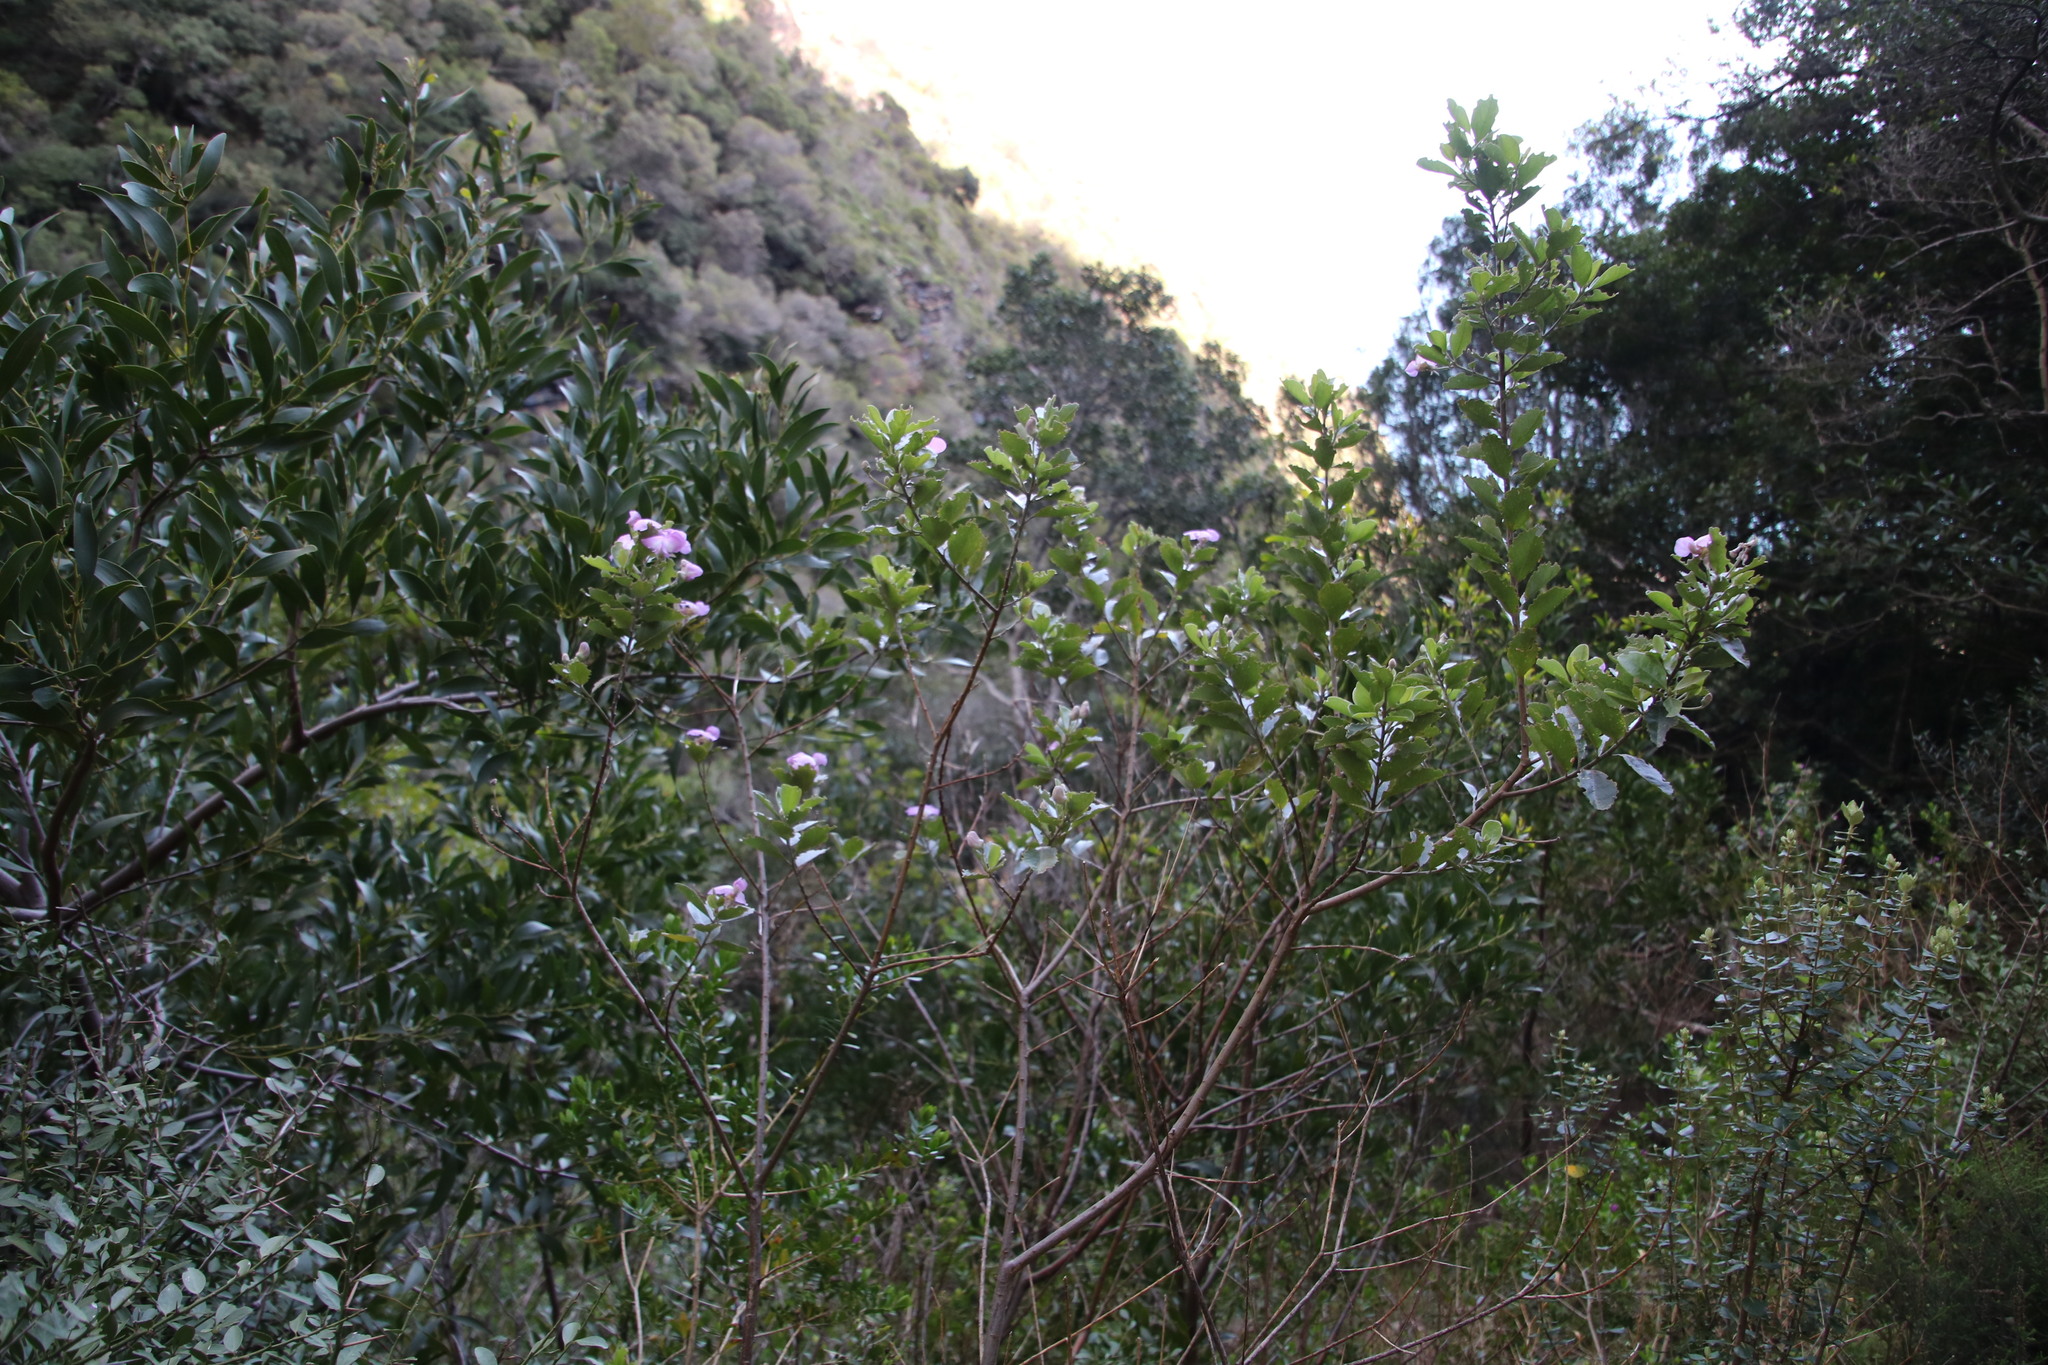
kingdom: Plantae
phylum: Tracheophyta
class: Magnoliopsida
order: Fabales
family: Fabaceae
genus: Podalyria
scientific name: Podalyria calyptrata
